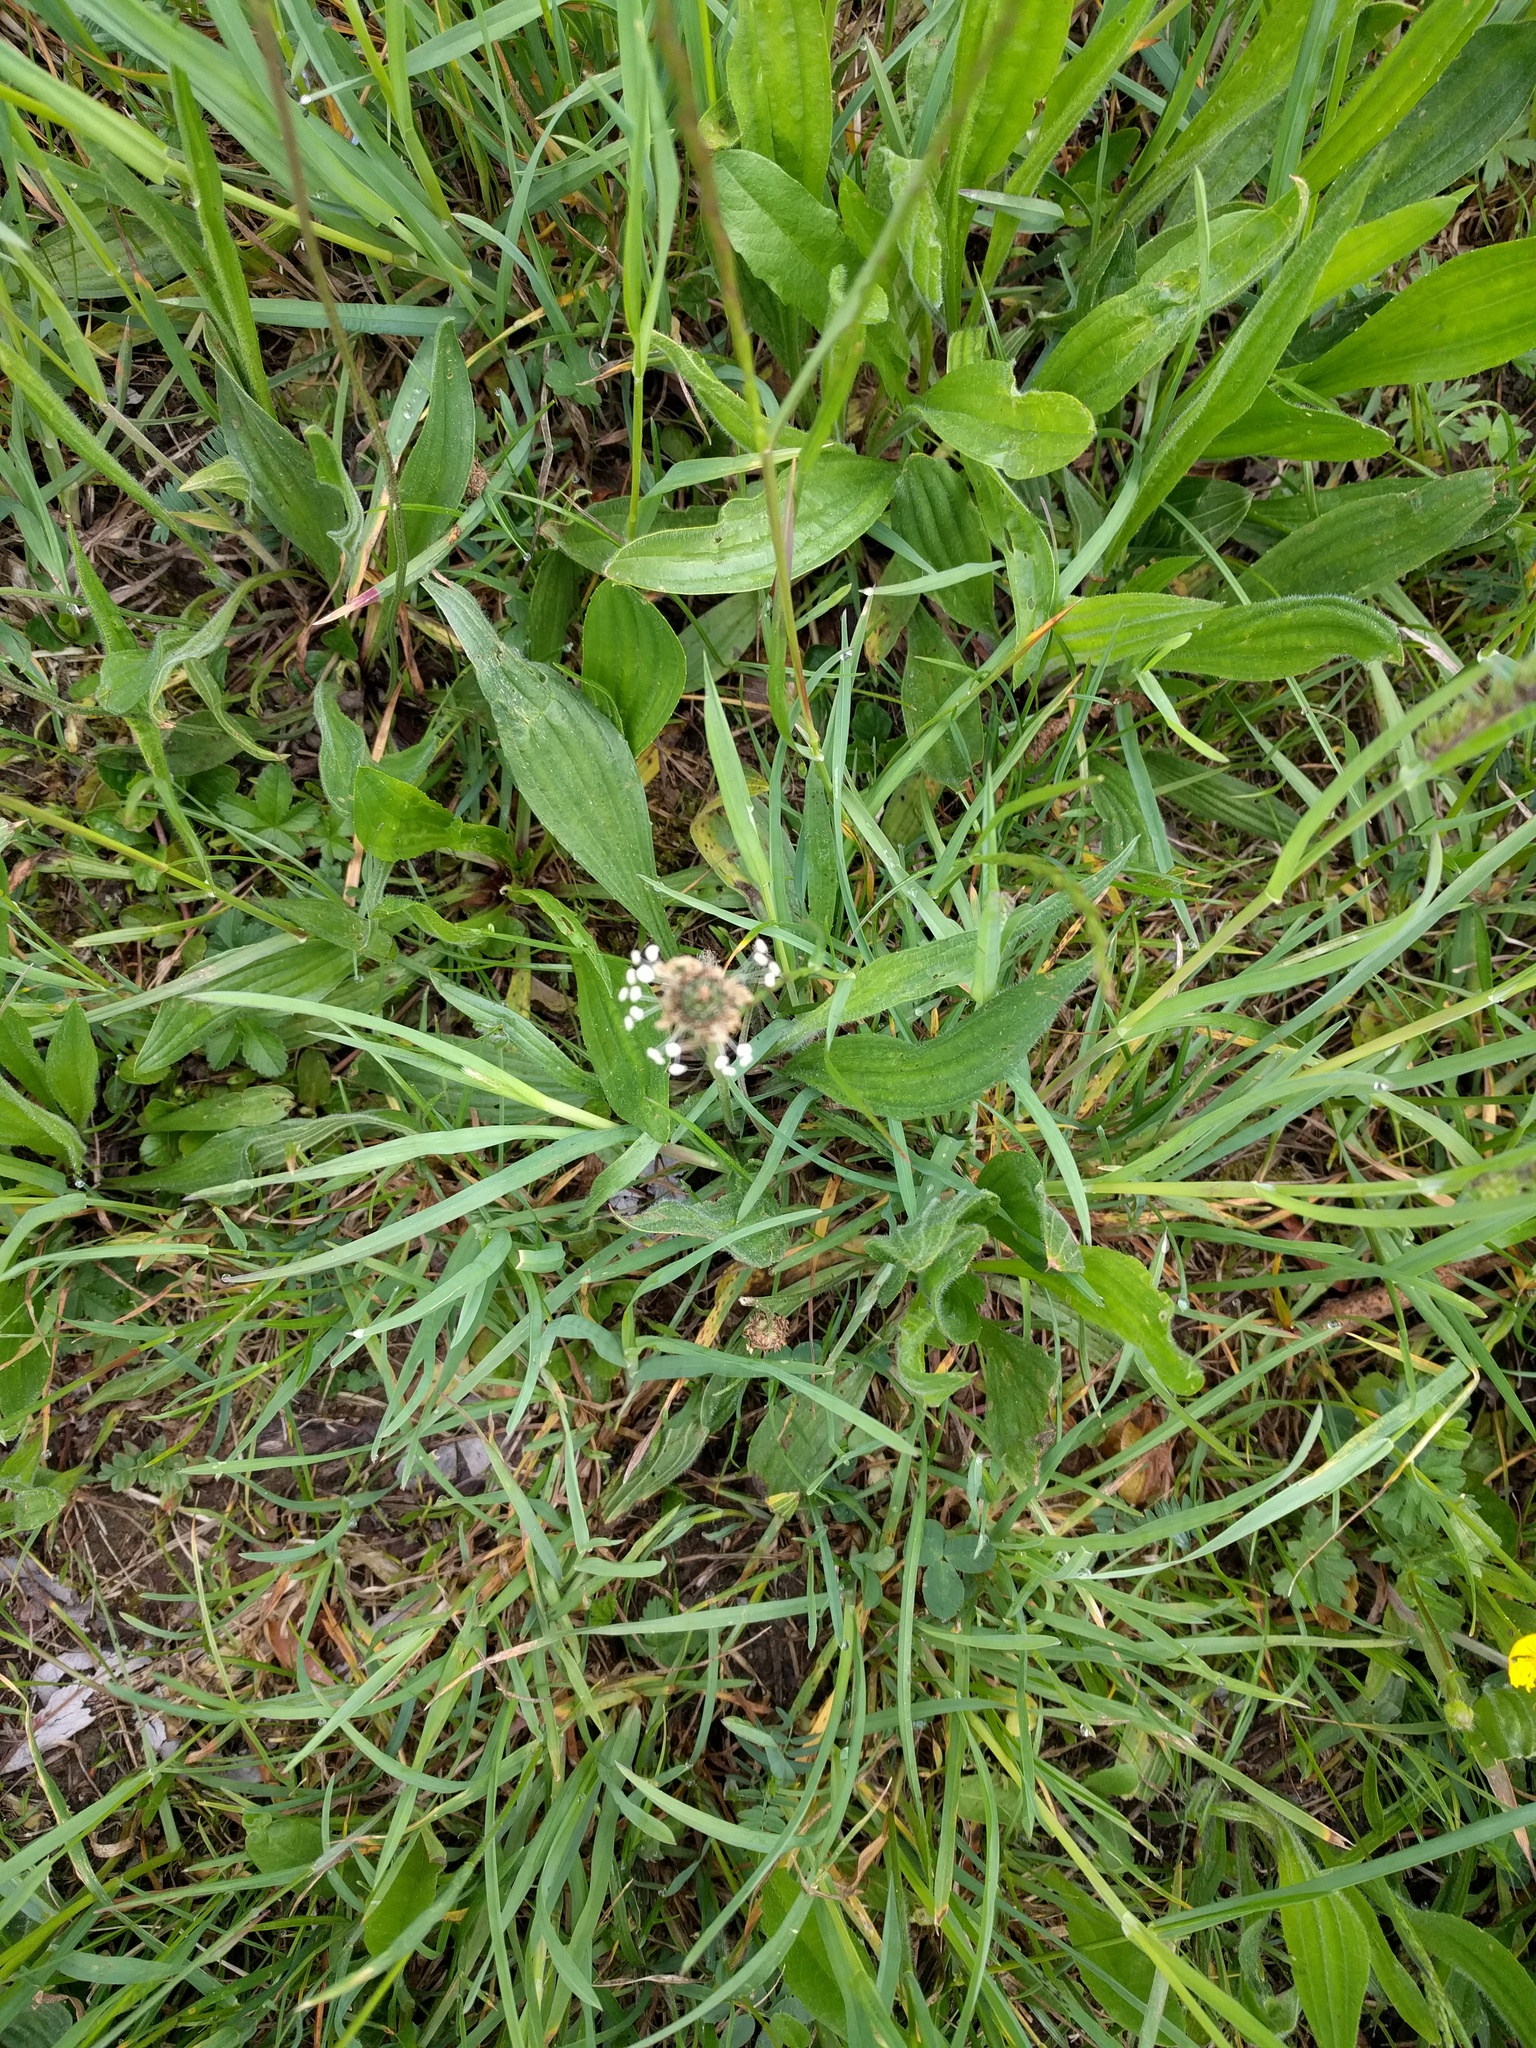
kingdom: Plantae
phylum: Tracheophyta
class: Magnoliopsida
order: Lamiales
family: Plantaginaceae
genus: Plantago
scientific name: Plantago lanceolata
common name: Ribwort plantain
